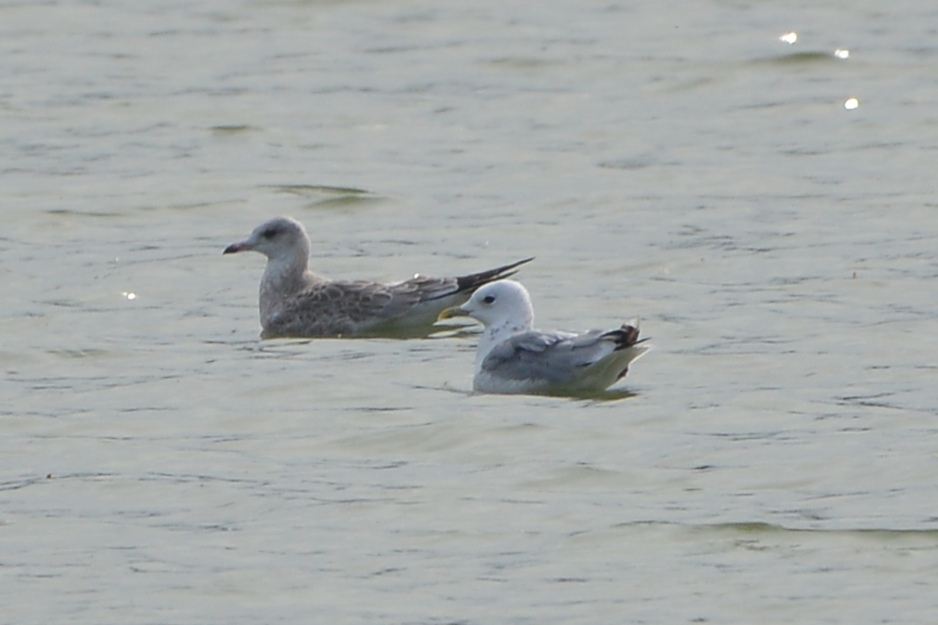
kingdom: Animalia
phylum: Chordata
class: Aves
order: Charadriiformes
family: Laridae
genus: Larus
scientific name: Larus canus
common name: Mew gull
